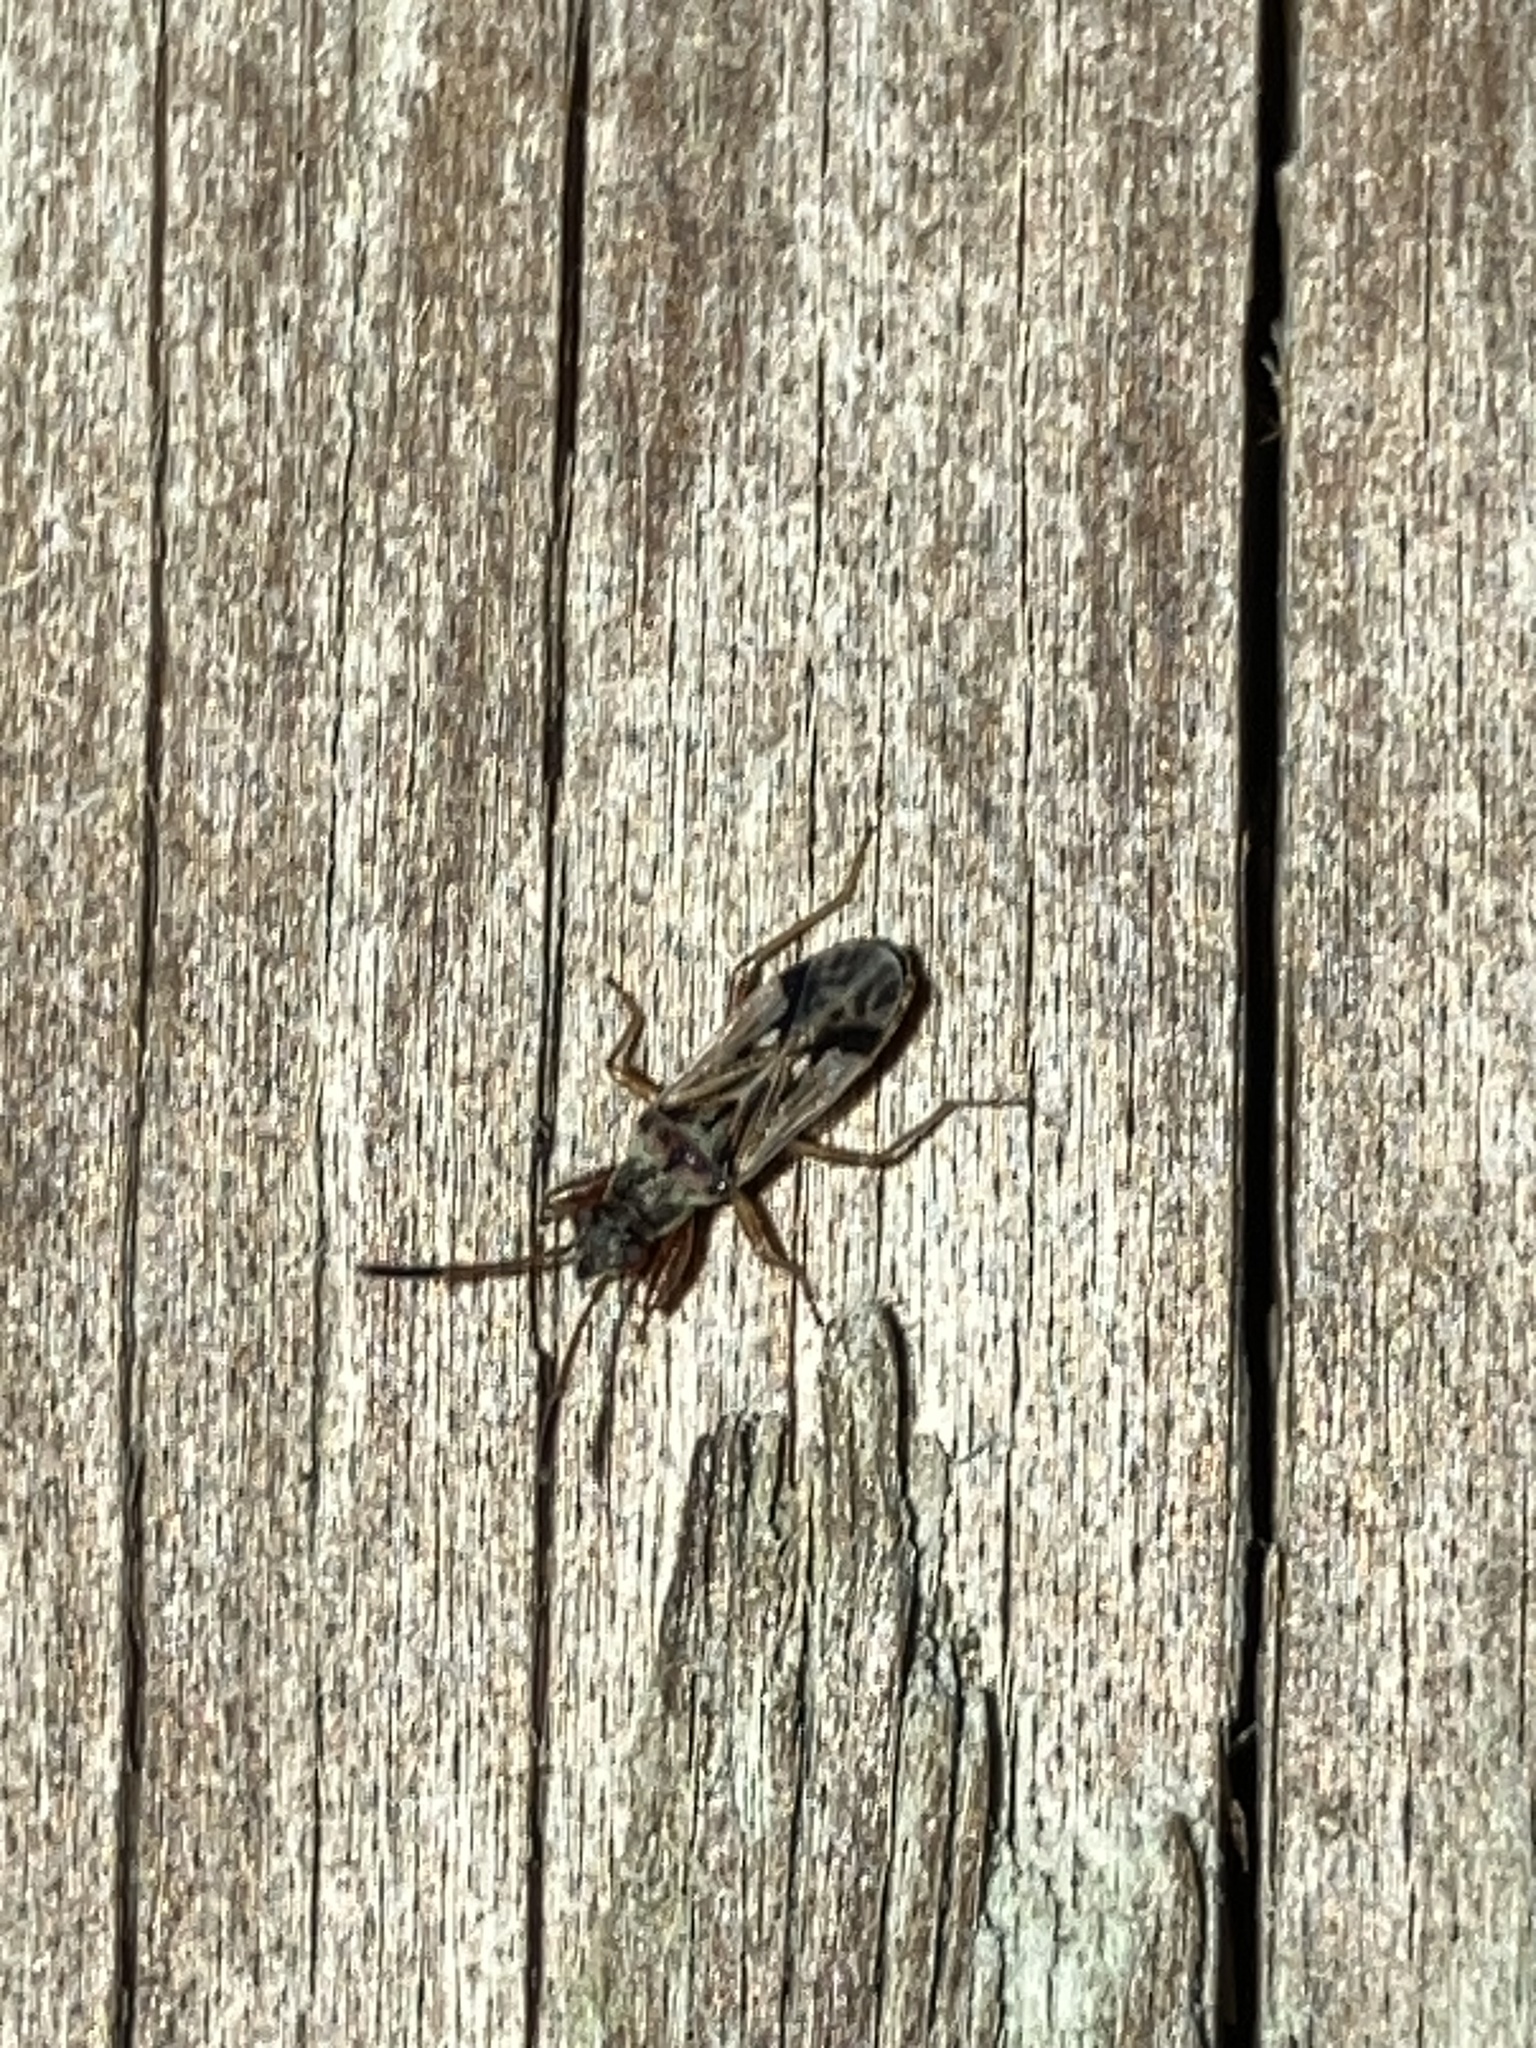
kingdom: Animalia
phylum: Arthropoda
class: Insecta
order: Hemiptera
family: Rhyparochromidae
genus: Pseudopachybrachius
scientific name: Pseudopachybrachius vinctus
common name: Dirt-colored seed bug
